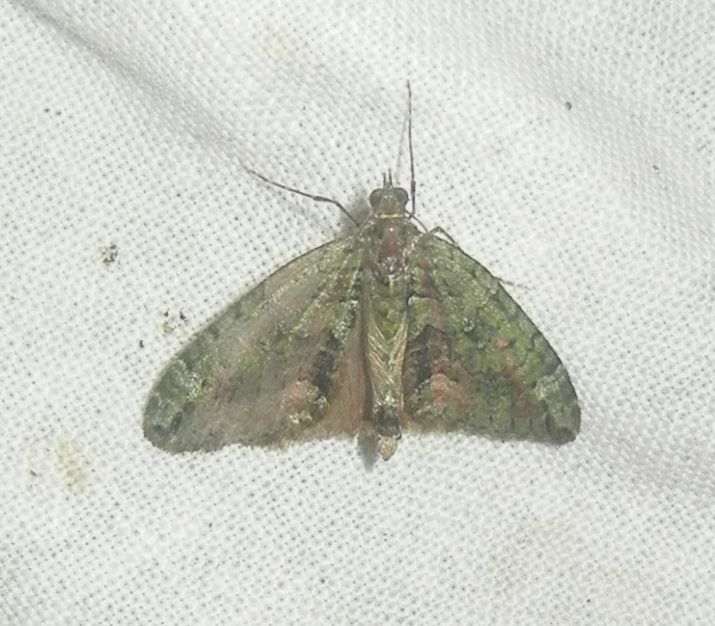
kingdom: Animalia
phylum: Arthropoda
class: Insecta
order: Lepidoptera
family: Geometridae
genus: Chloroclysta
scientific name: Chloroclysta siterata
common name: Red-green carpet
